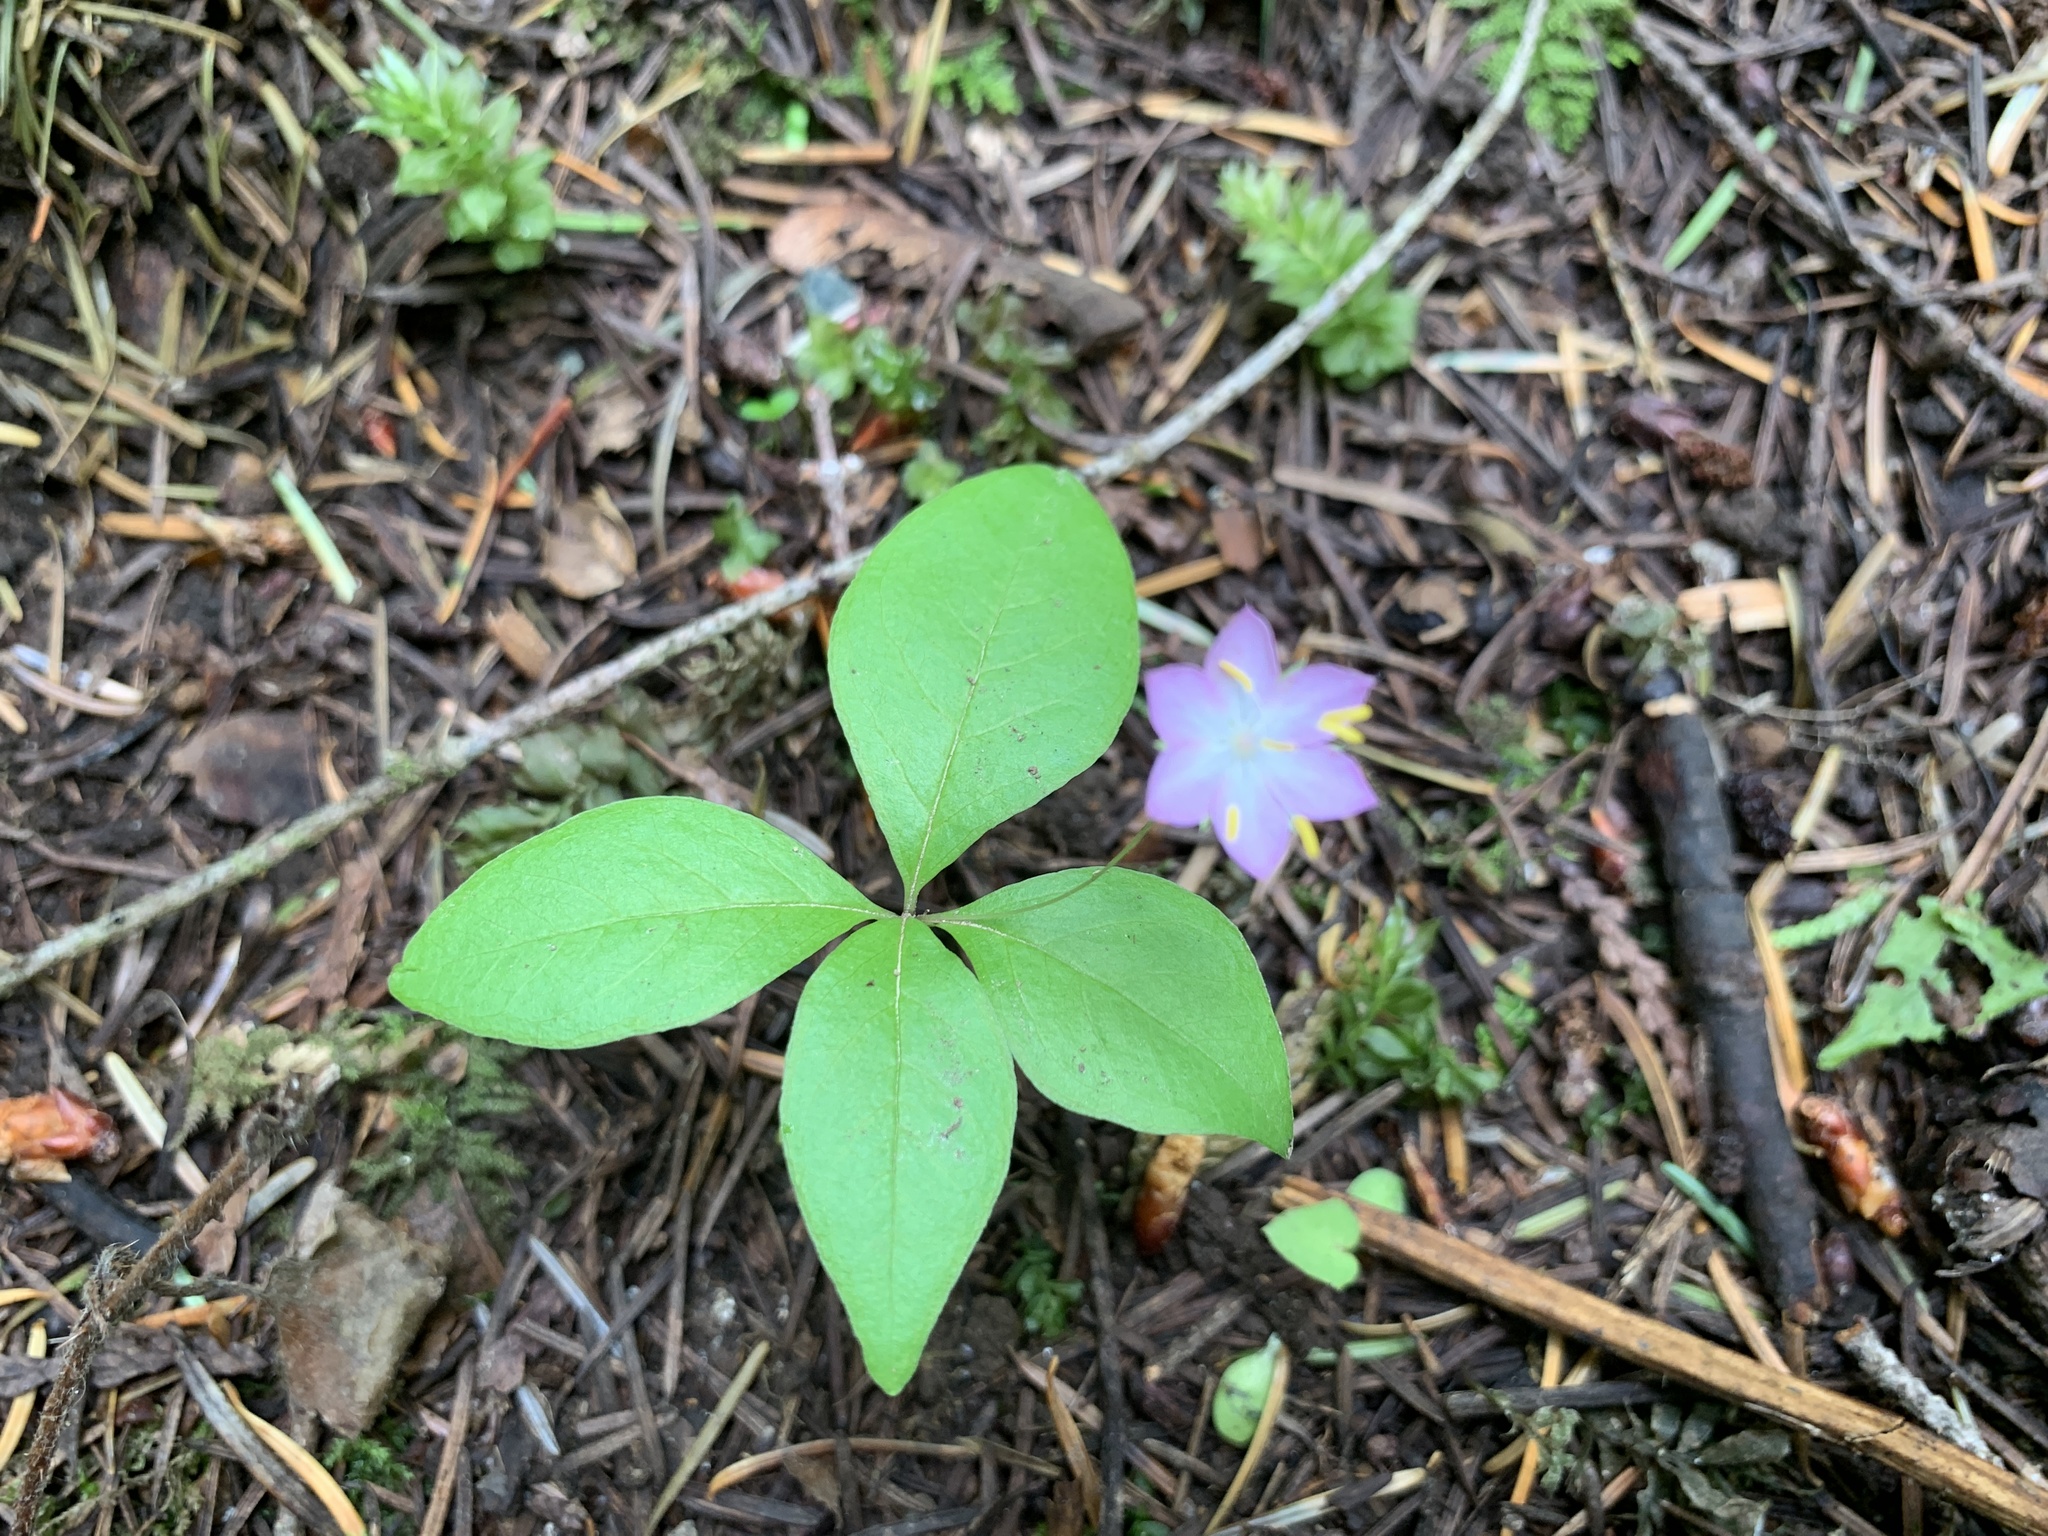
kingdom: Plantae
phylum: Tracheophyta
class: Magnoliopsida
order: Ericales
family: Primulaceae
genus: Lysimachia
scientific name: Lysimachia latifolia
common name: Pacific starflower
